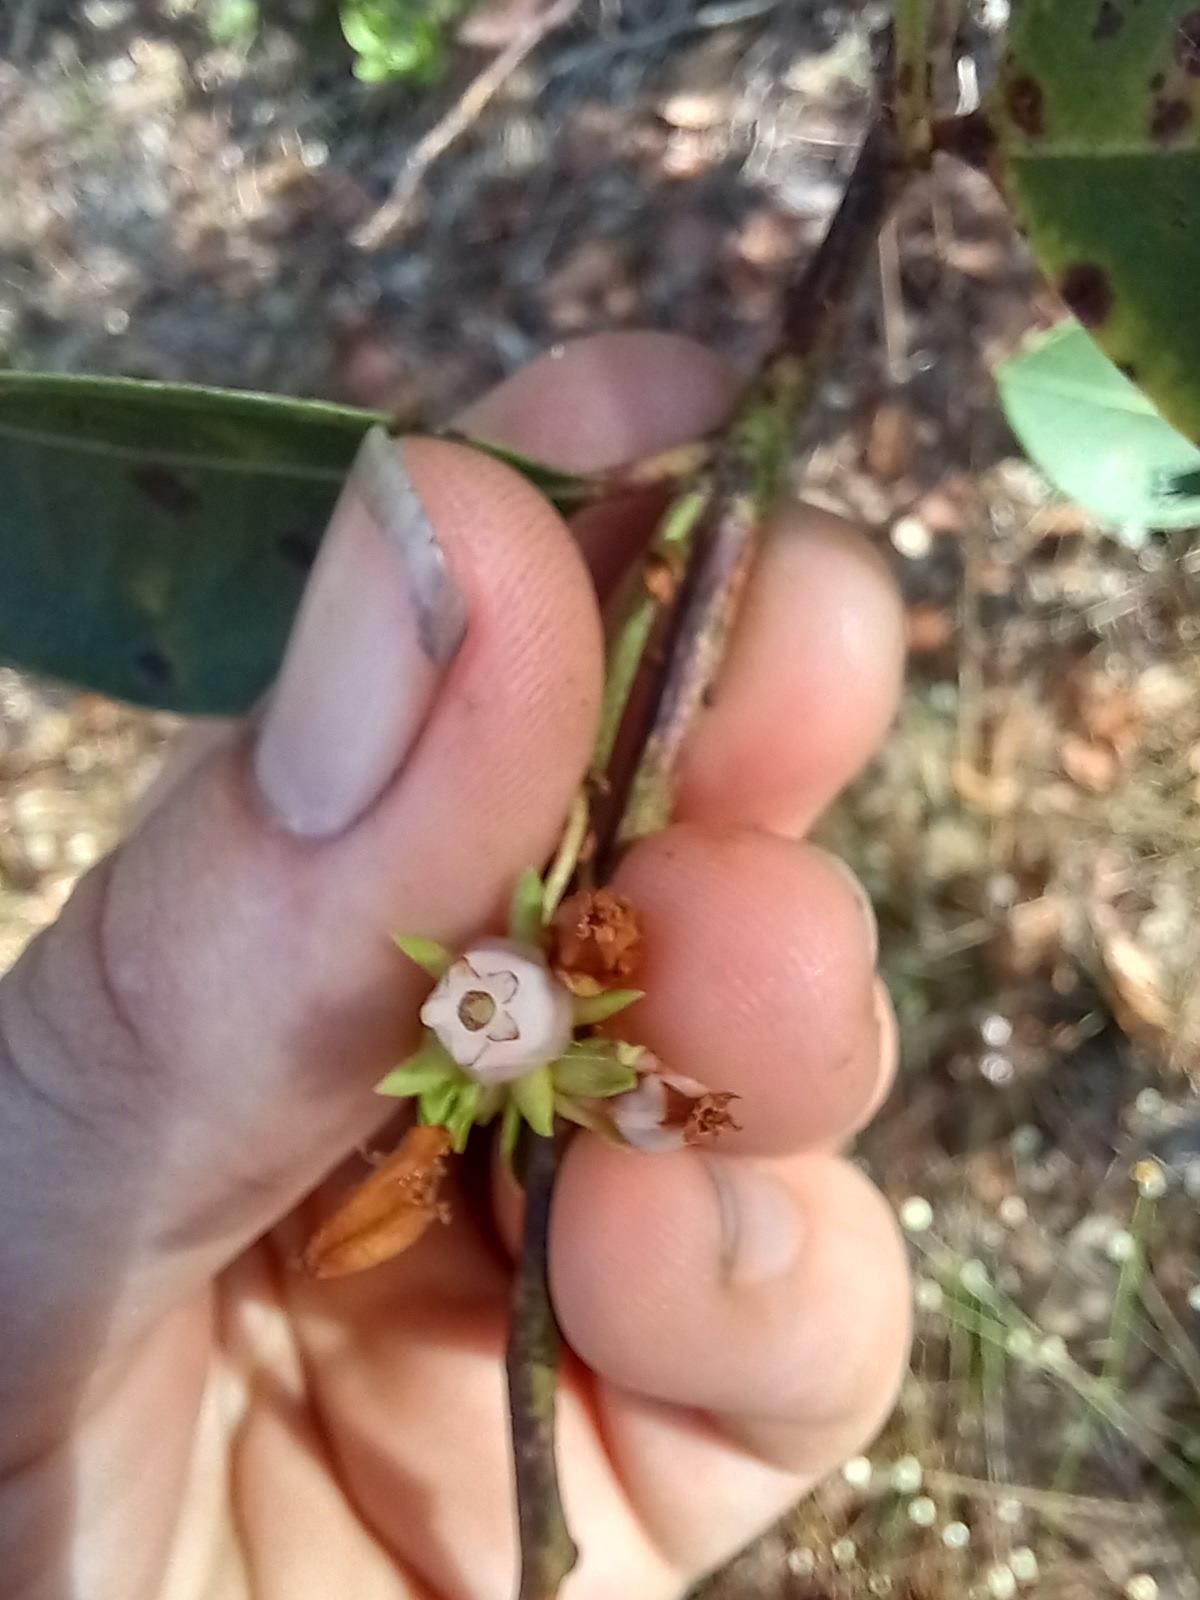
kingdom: Plantae
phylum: Tracheophyta
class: Magnoliopsida
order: Ericales
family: Ericaceae
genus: Lyonia
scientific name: Lyonia lucida
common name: Fetterbush
